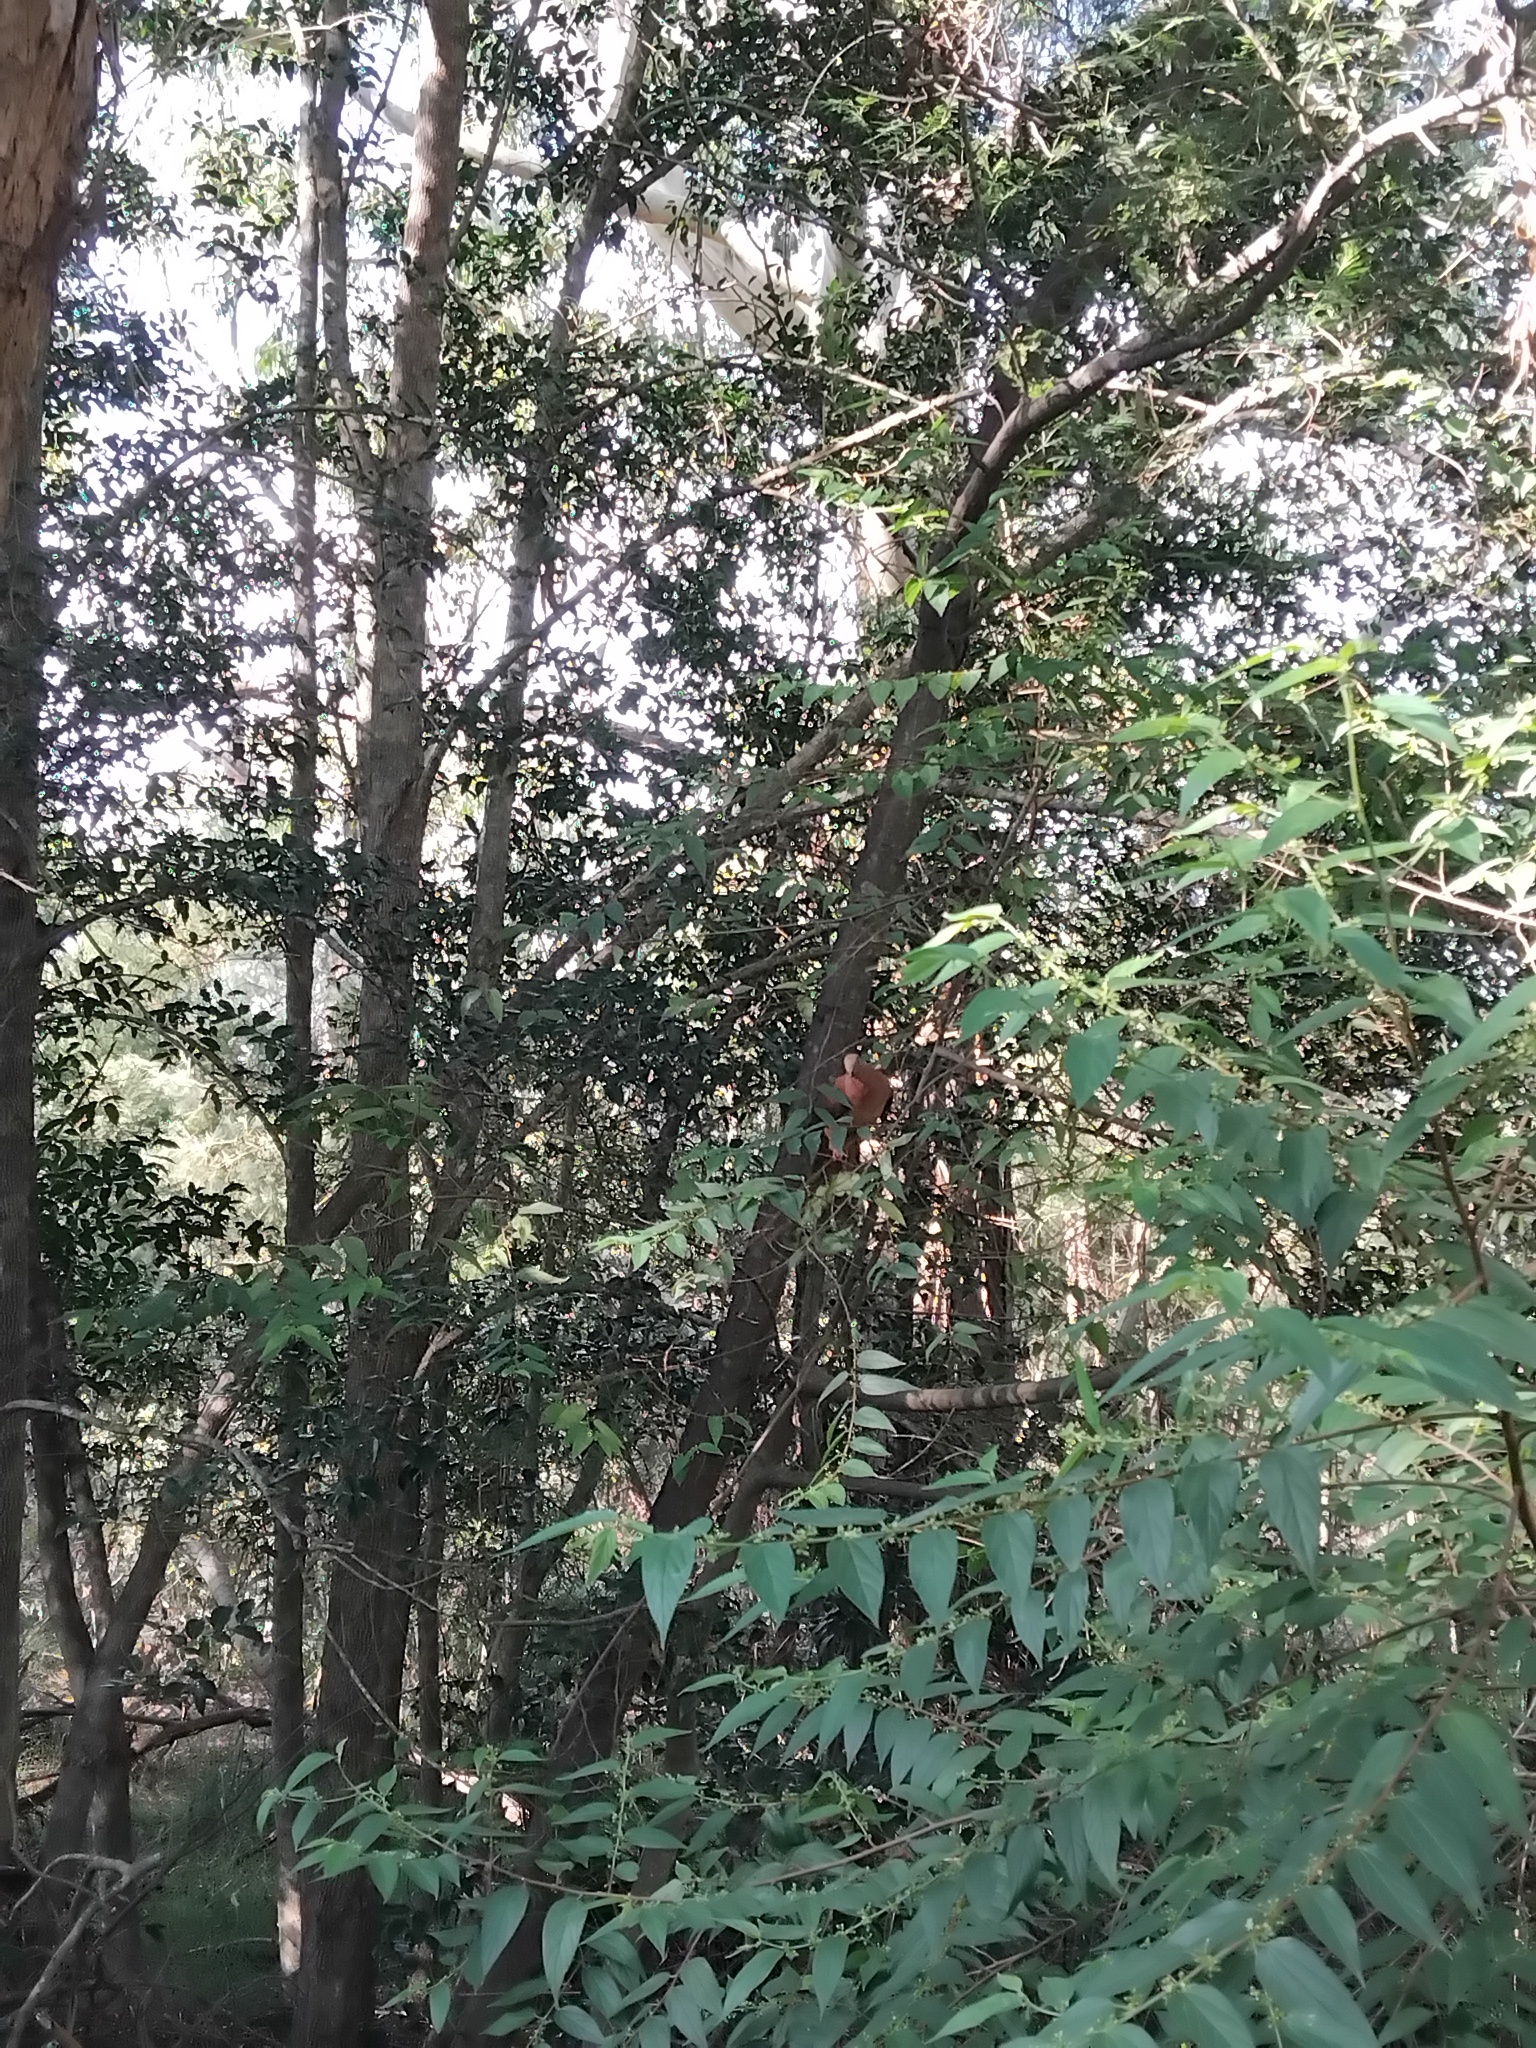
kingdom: Animalia
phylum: Chordata
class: Aves
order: Columbiformes
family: Columbidae
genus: Macropygia
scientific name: Macropygia phasianella
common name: Brown cuckoo-dove
